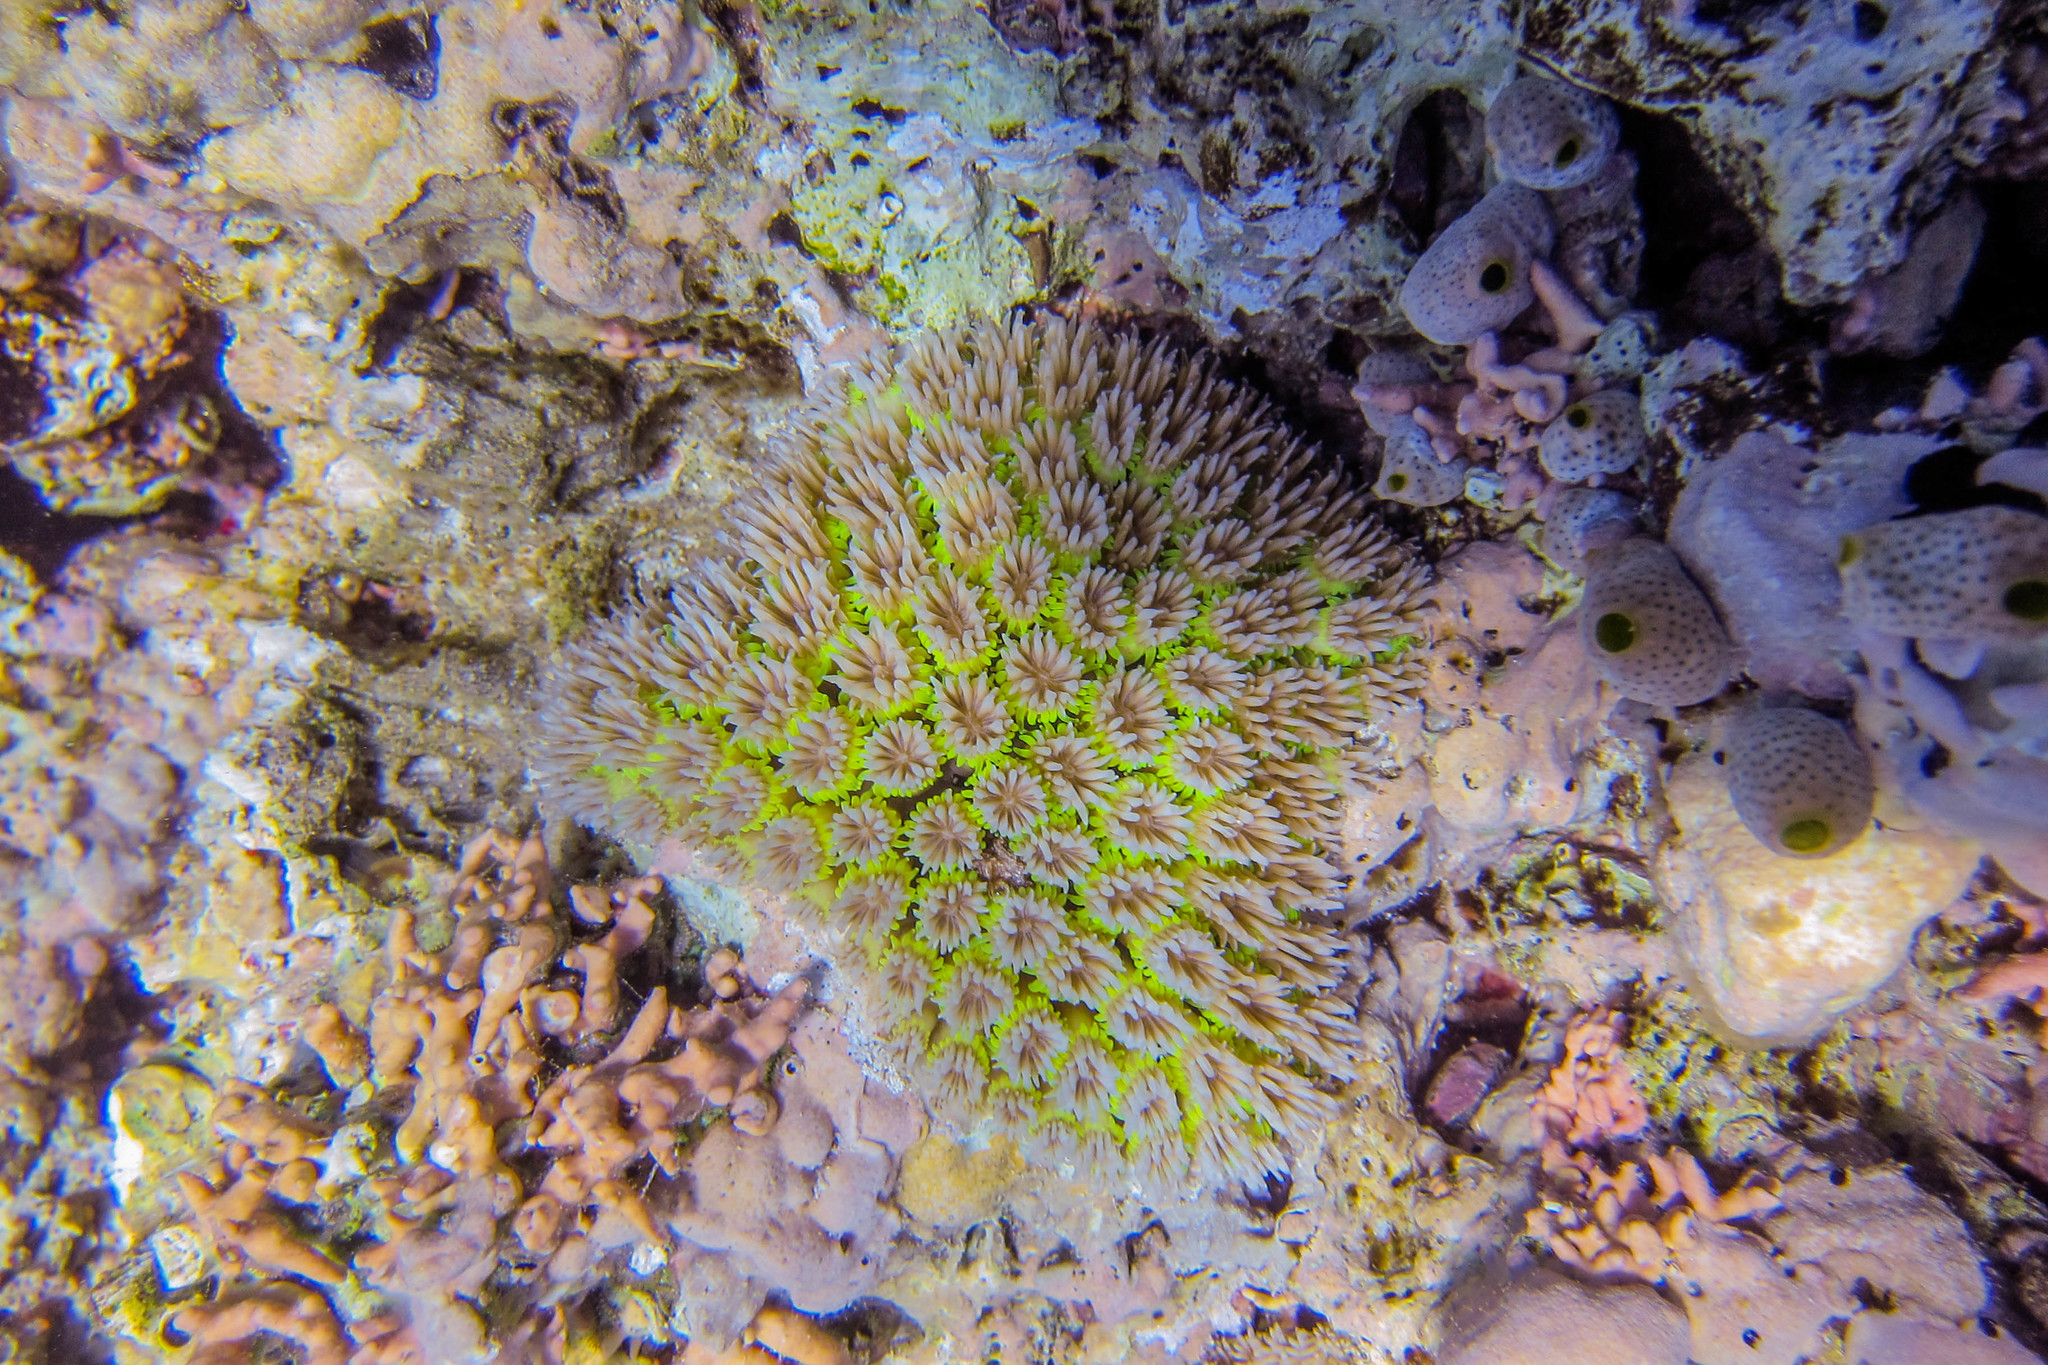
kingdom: Animalia
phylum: Cnidaria
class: Anthozoa
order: Scleractinia
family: Euphylliidae
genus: Galaxea
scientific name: Galaxea fascicularis
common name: Octopus coral
